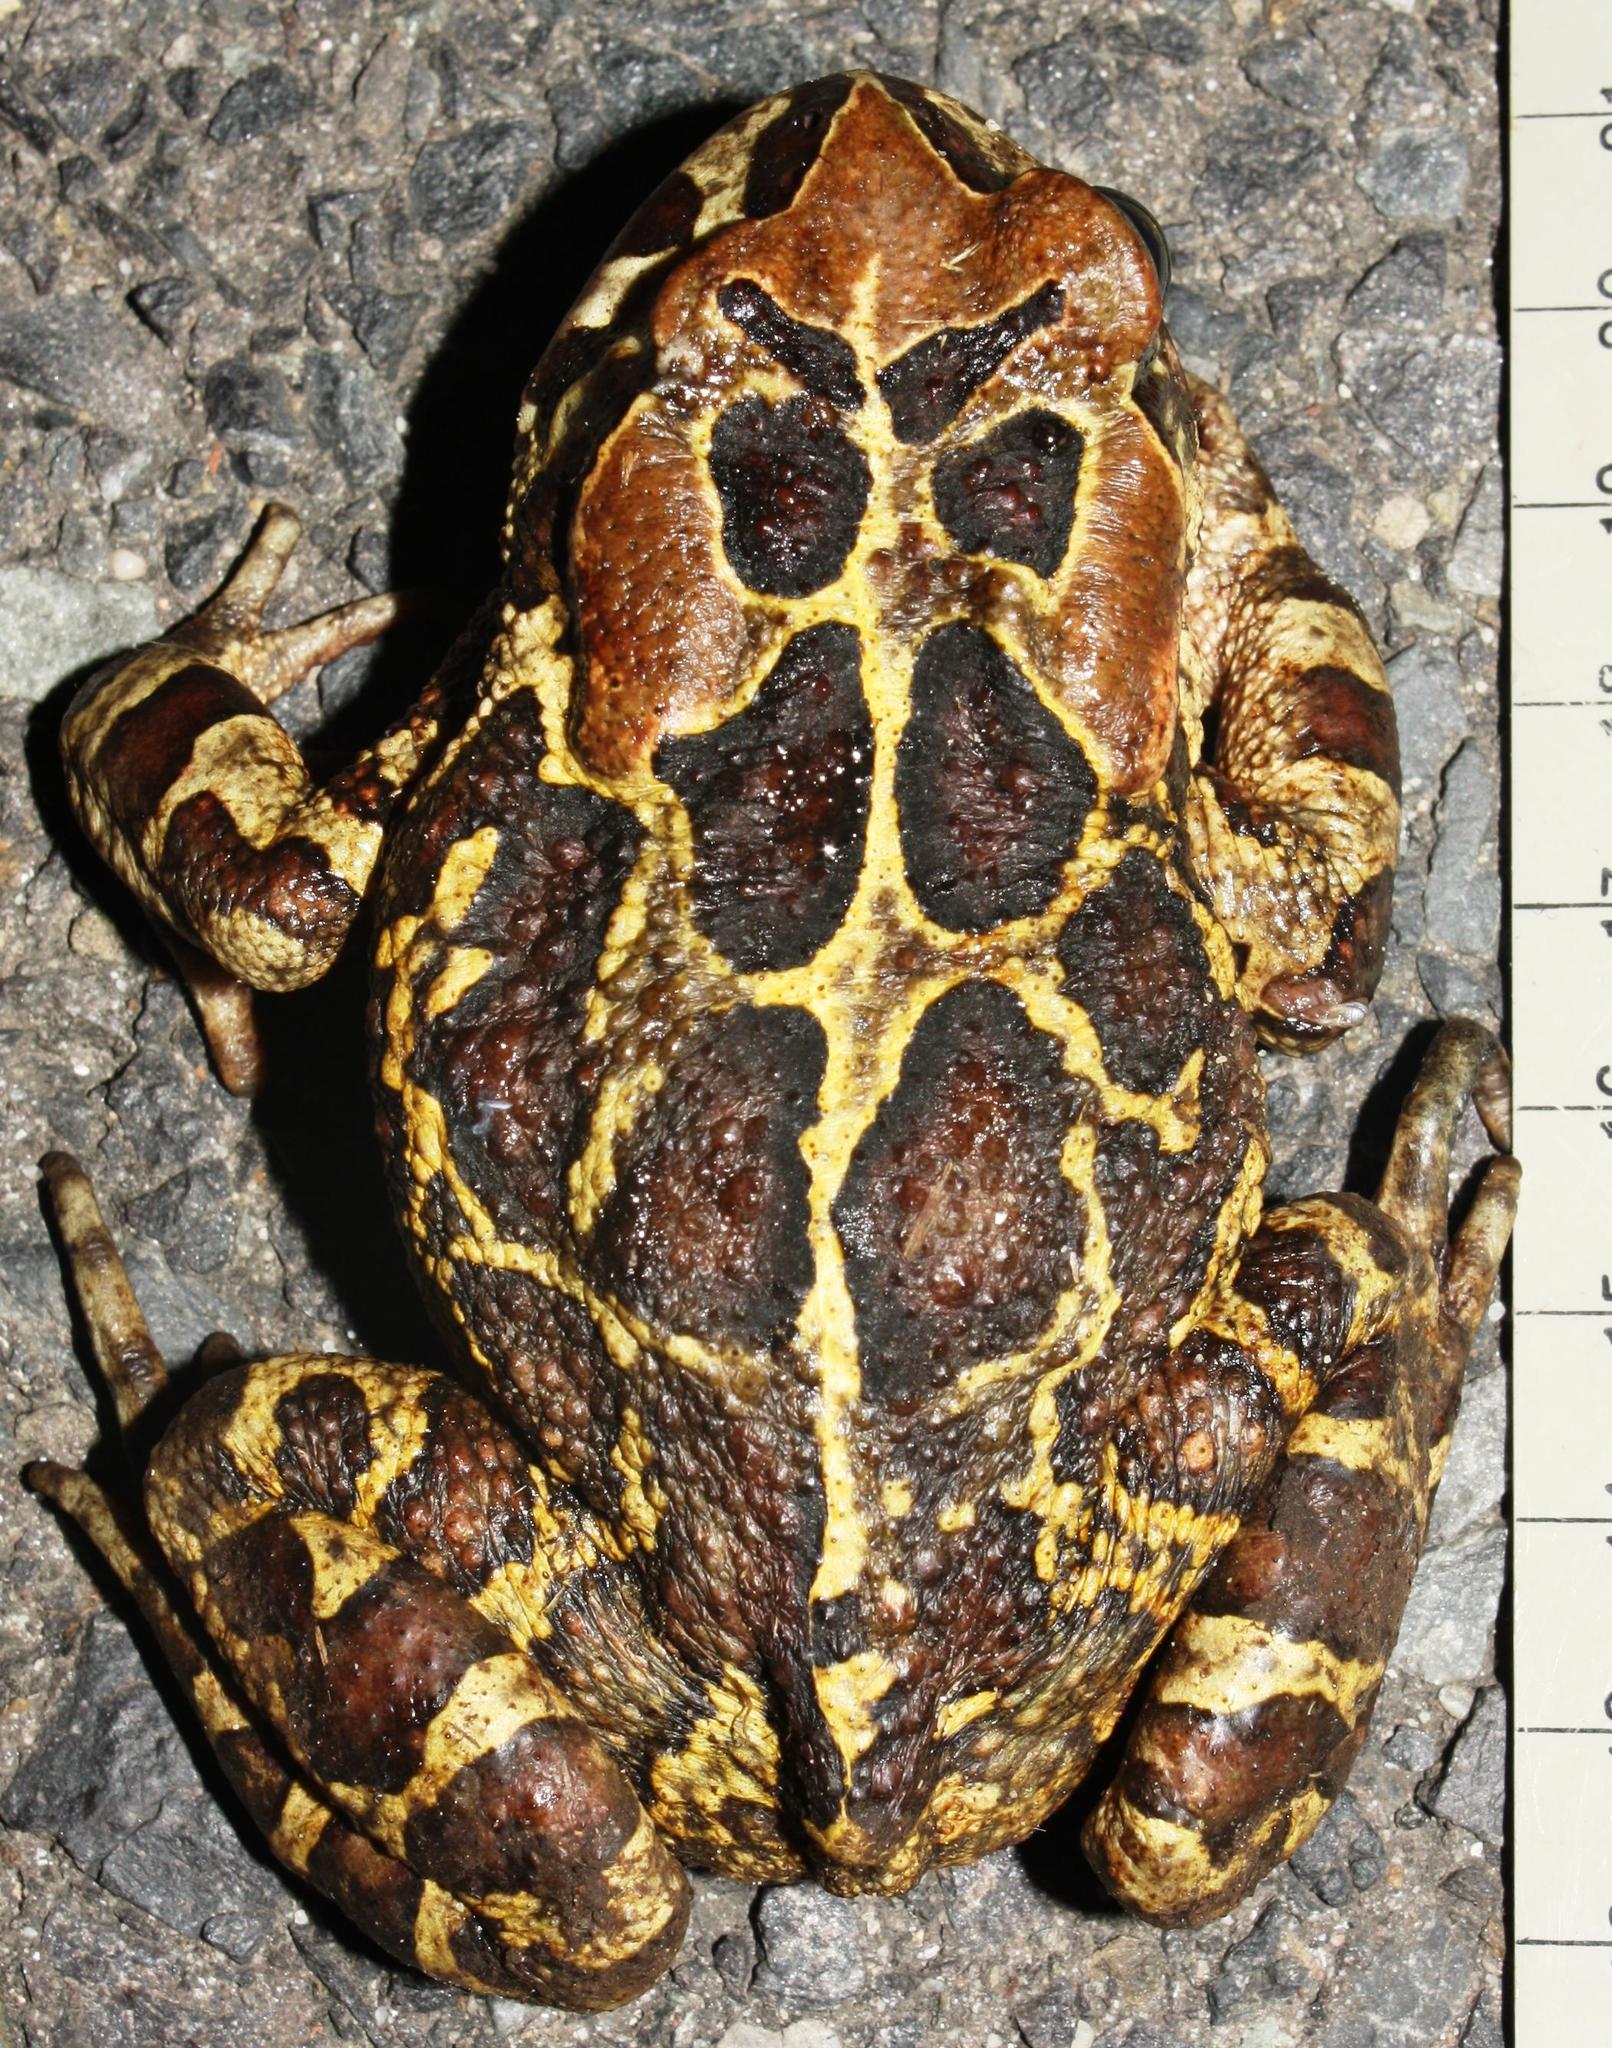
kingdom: Animalia
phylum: Chordata
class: Amphibia
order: Anura
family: Bufonidae
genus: Sclerophrys
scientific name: Sclerophrys pantherina
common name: Panther toad
